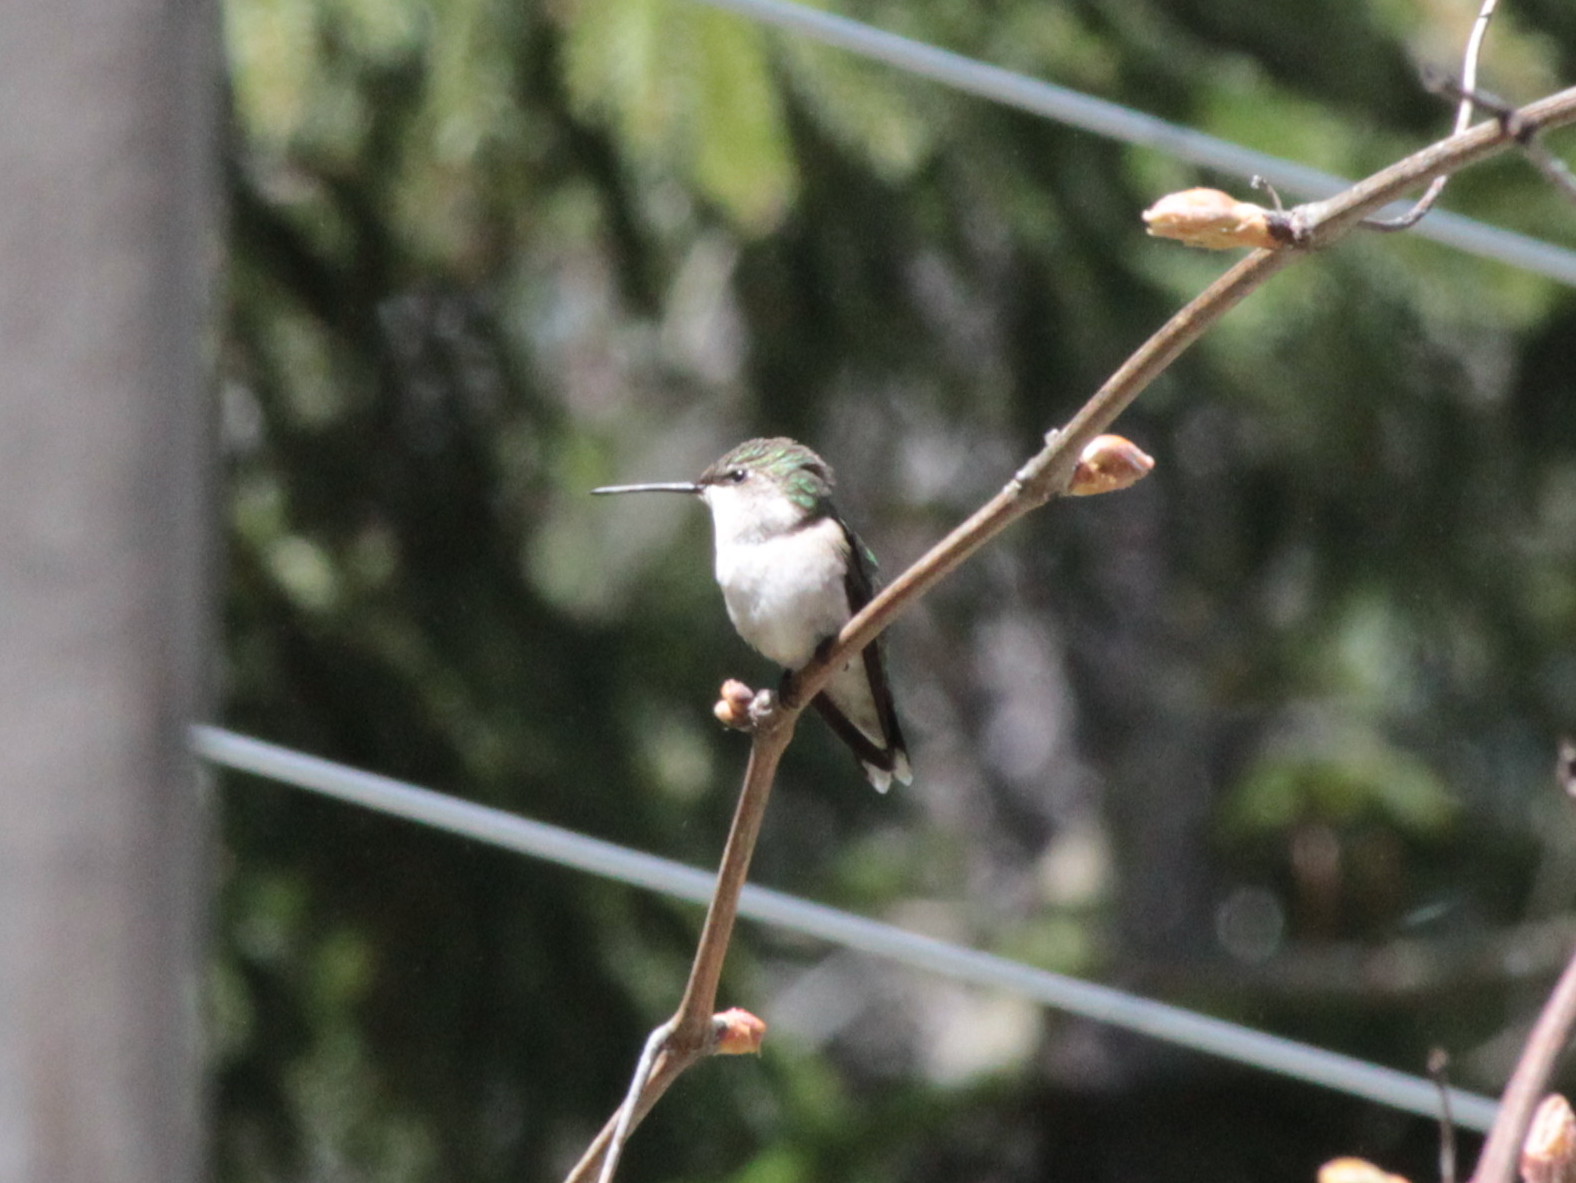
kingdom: Animalia
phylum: Chordata
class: Aves
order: Apodiformes
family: Trochilidae
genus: Archilochus
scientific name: Archilochus colubris
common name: Ruby-throated hummingbird
